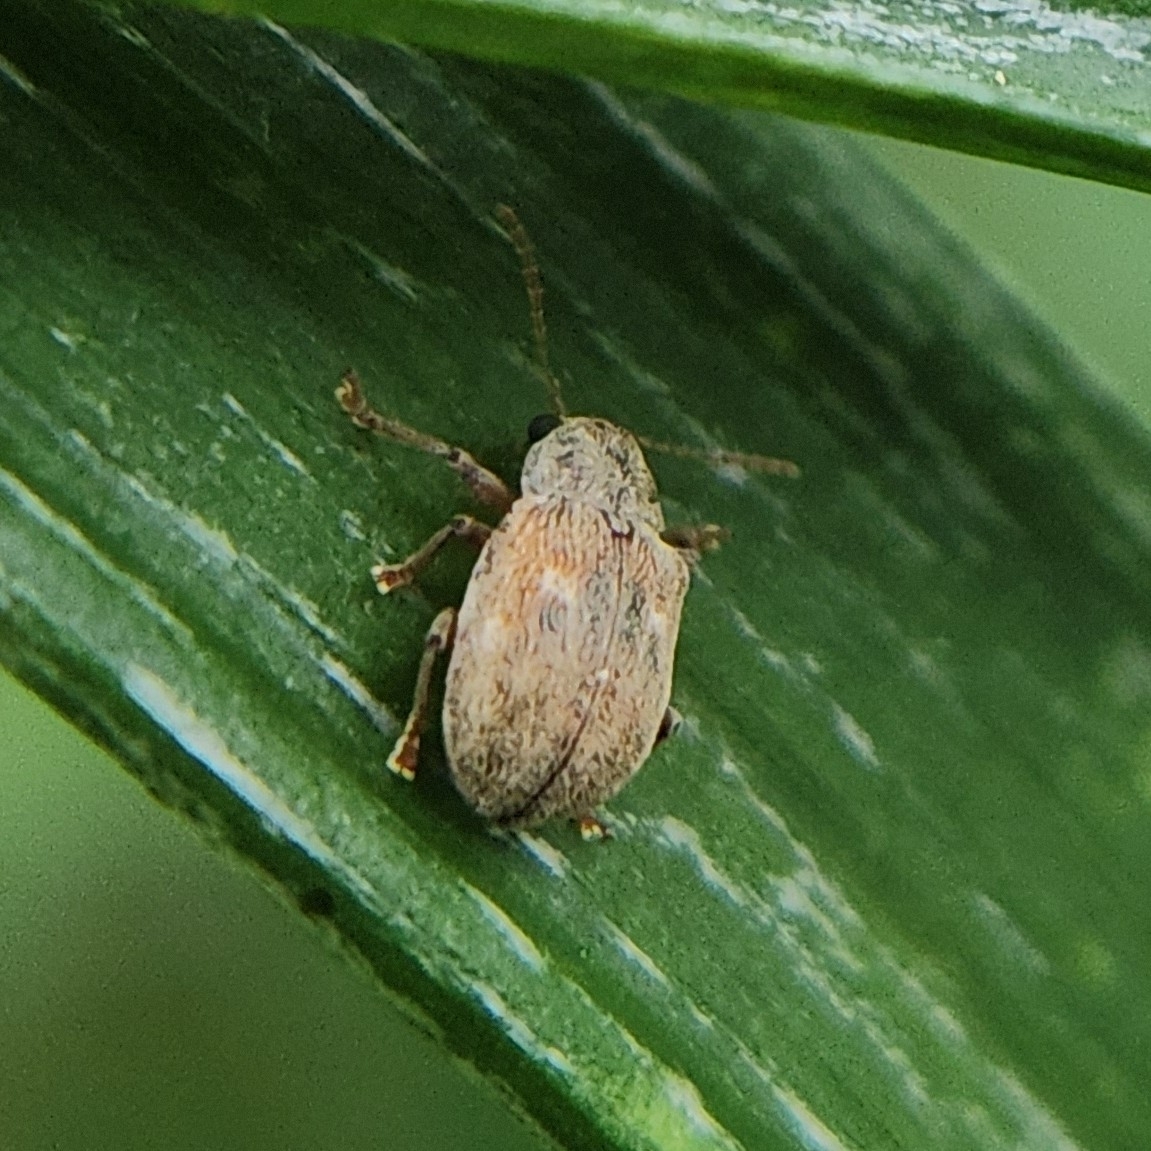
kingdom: Animalia
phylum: Arthropoda
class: Insecta
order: Coleoptera
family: Chrysomelidae
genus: Demotina
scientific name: Demotina modesta
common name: Leaf beetle
